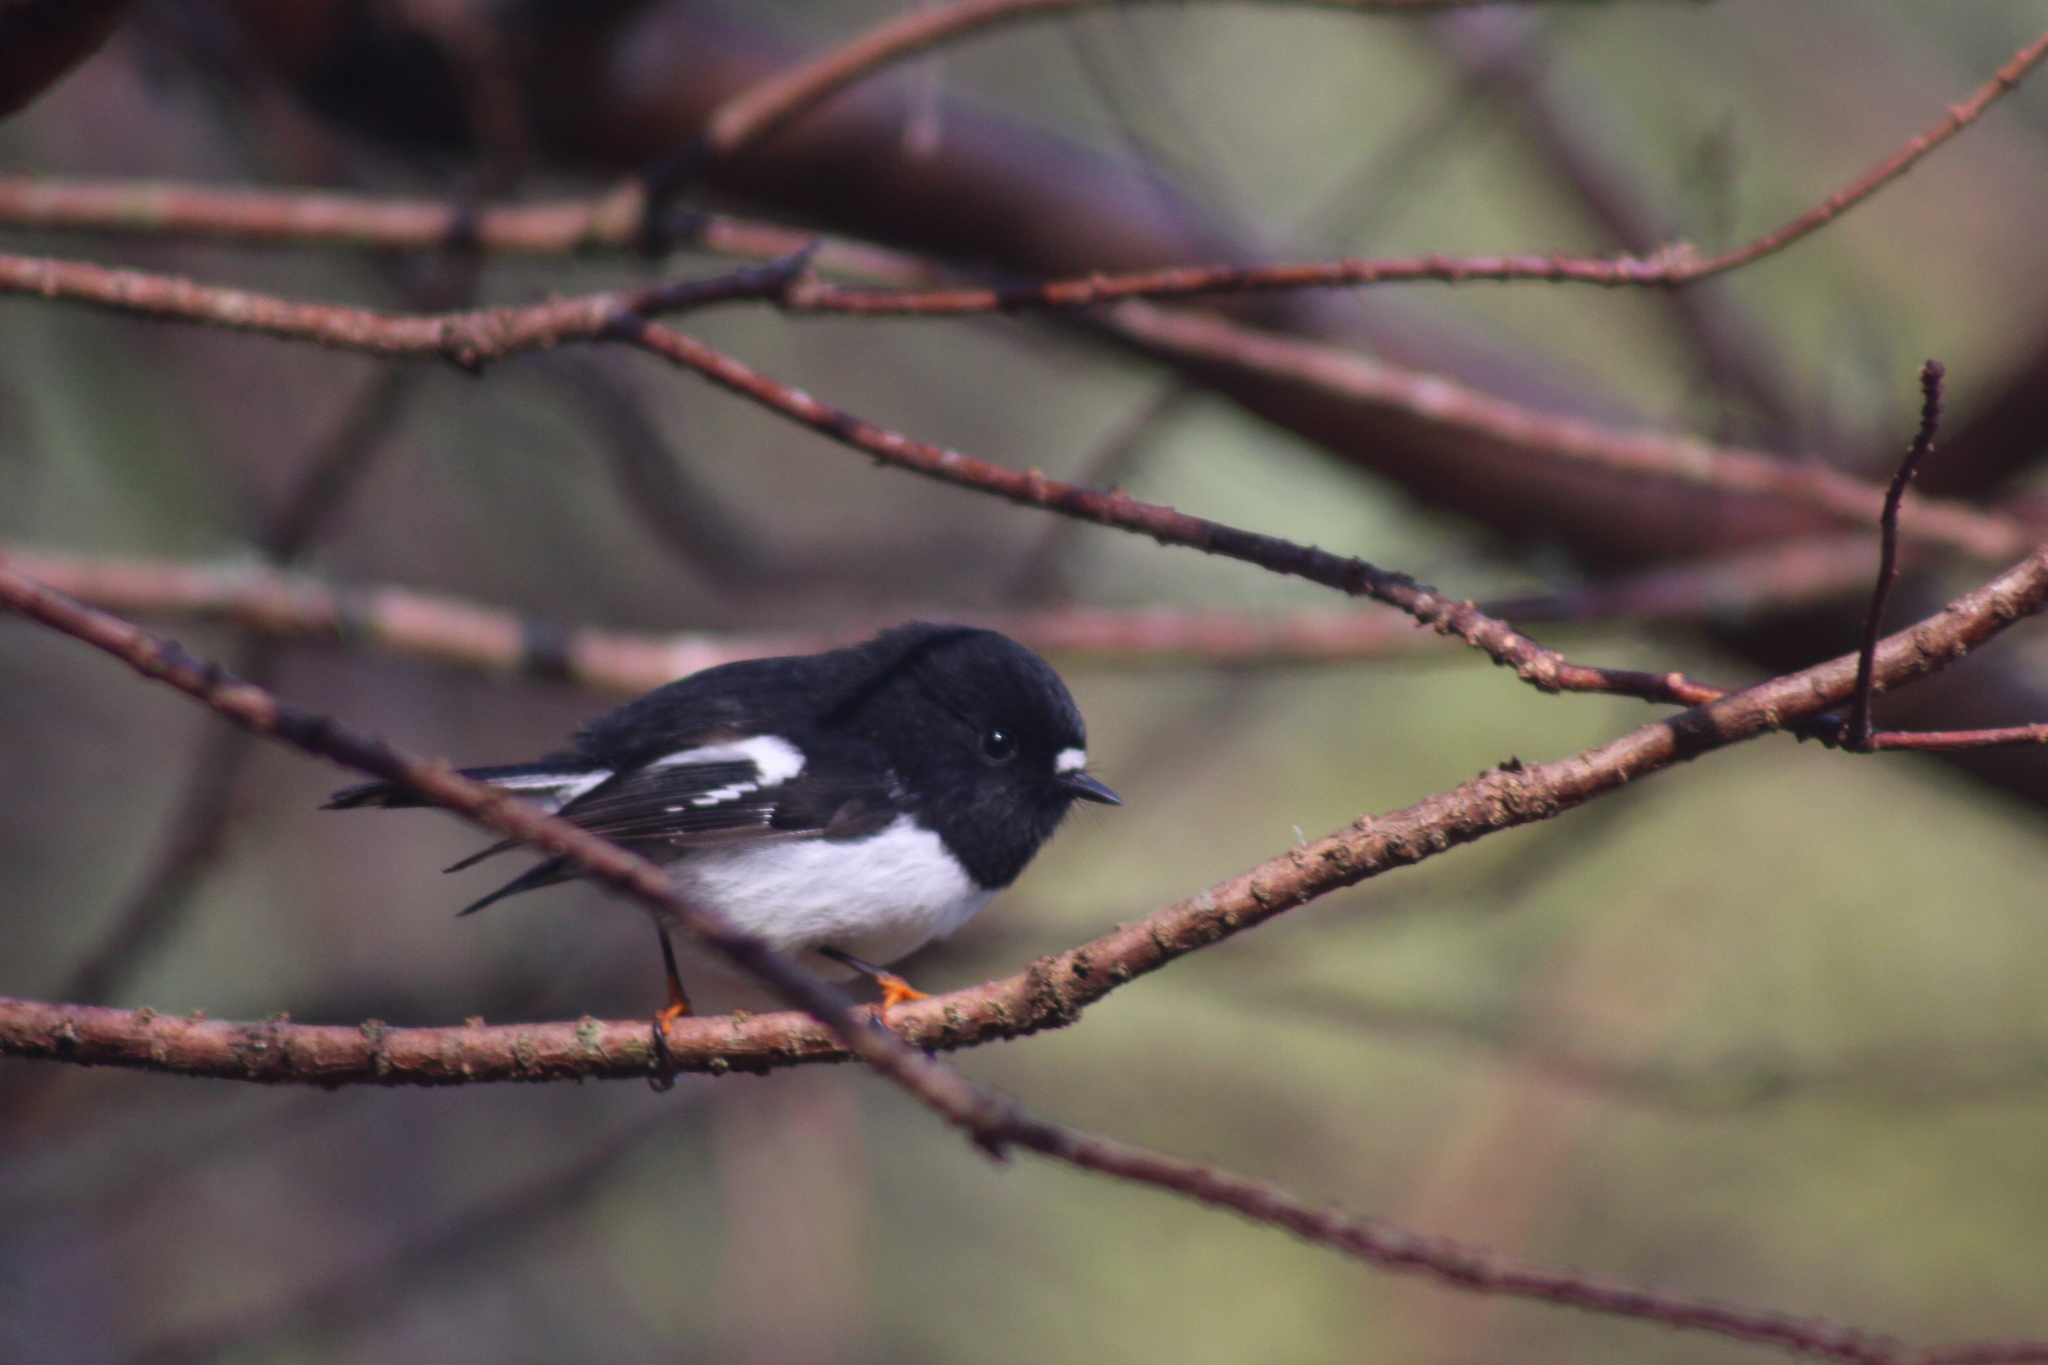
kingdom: Animalia
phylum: Chordata
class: Aves
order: Passeriformes
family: Petroicidae
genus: Petroica
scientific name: Petroica macrocephala
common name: Tomtit
